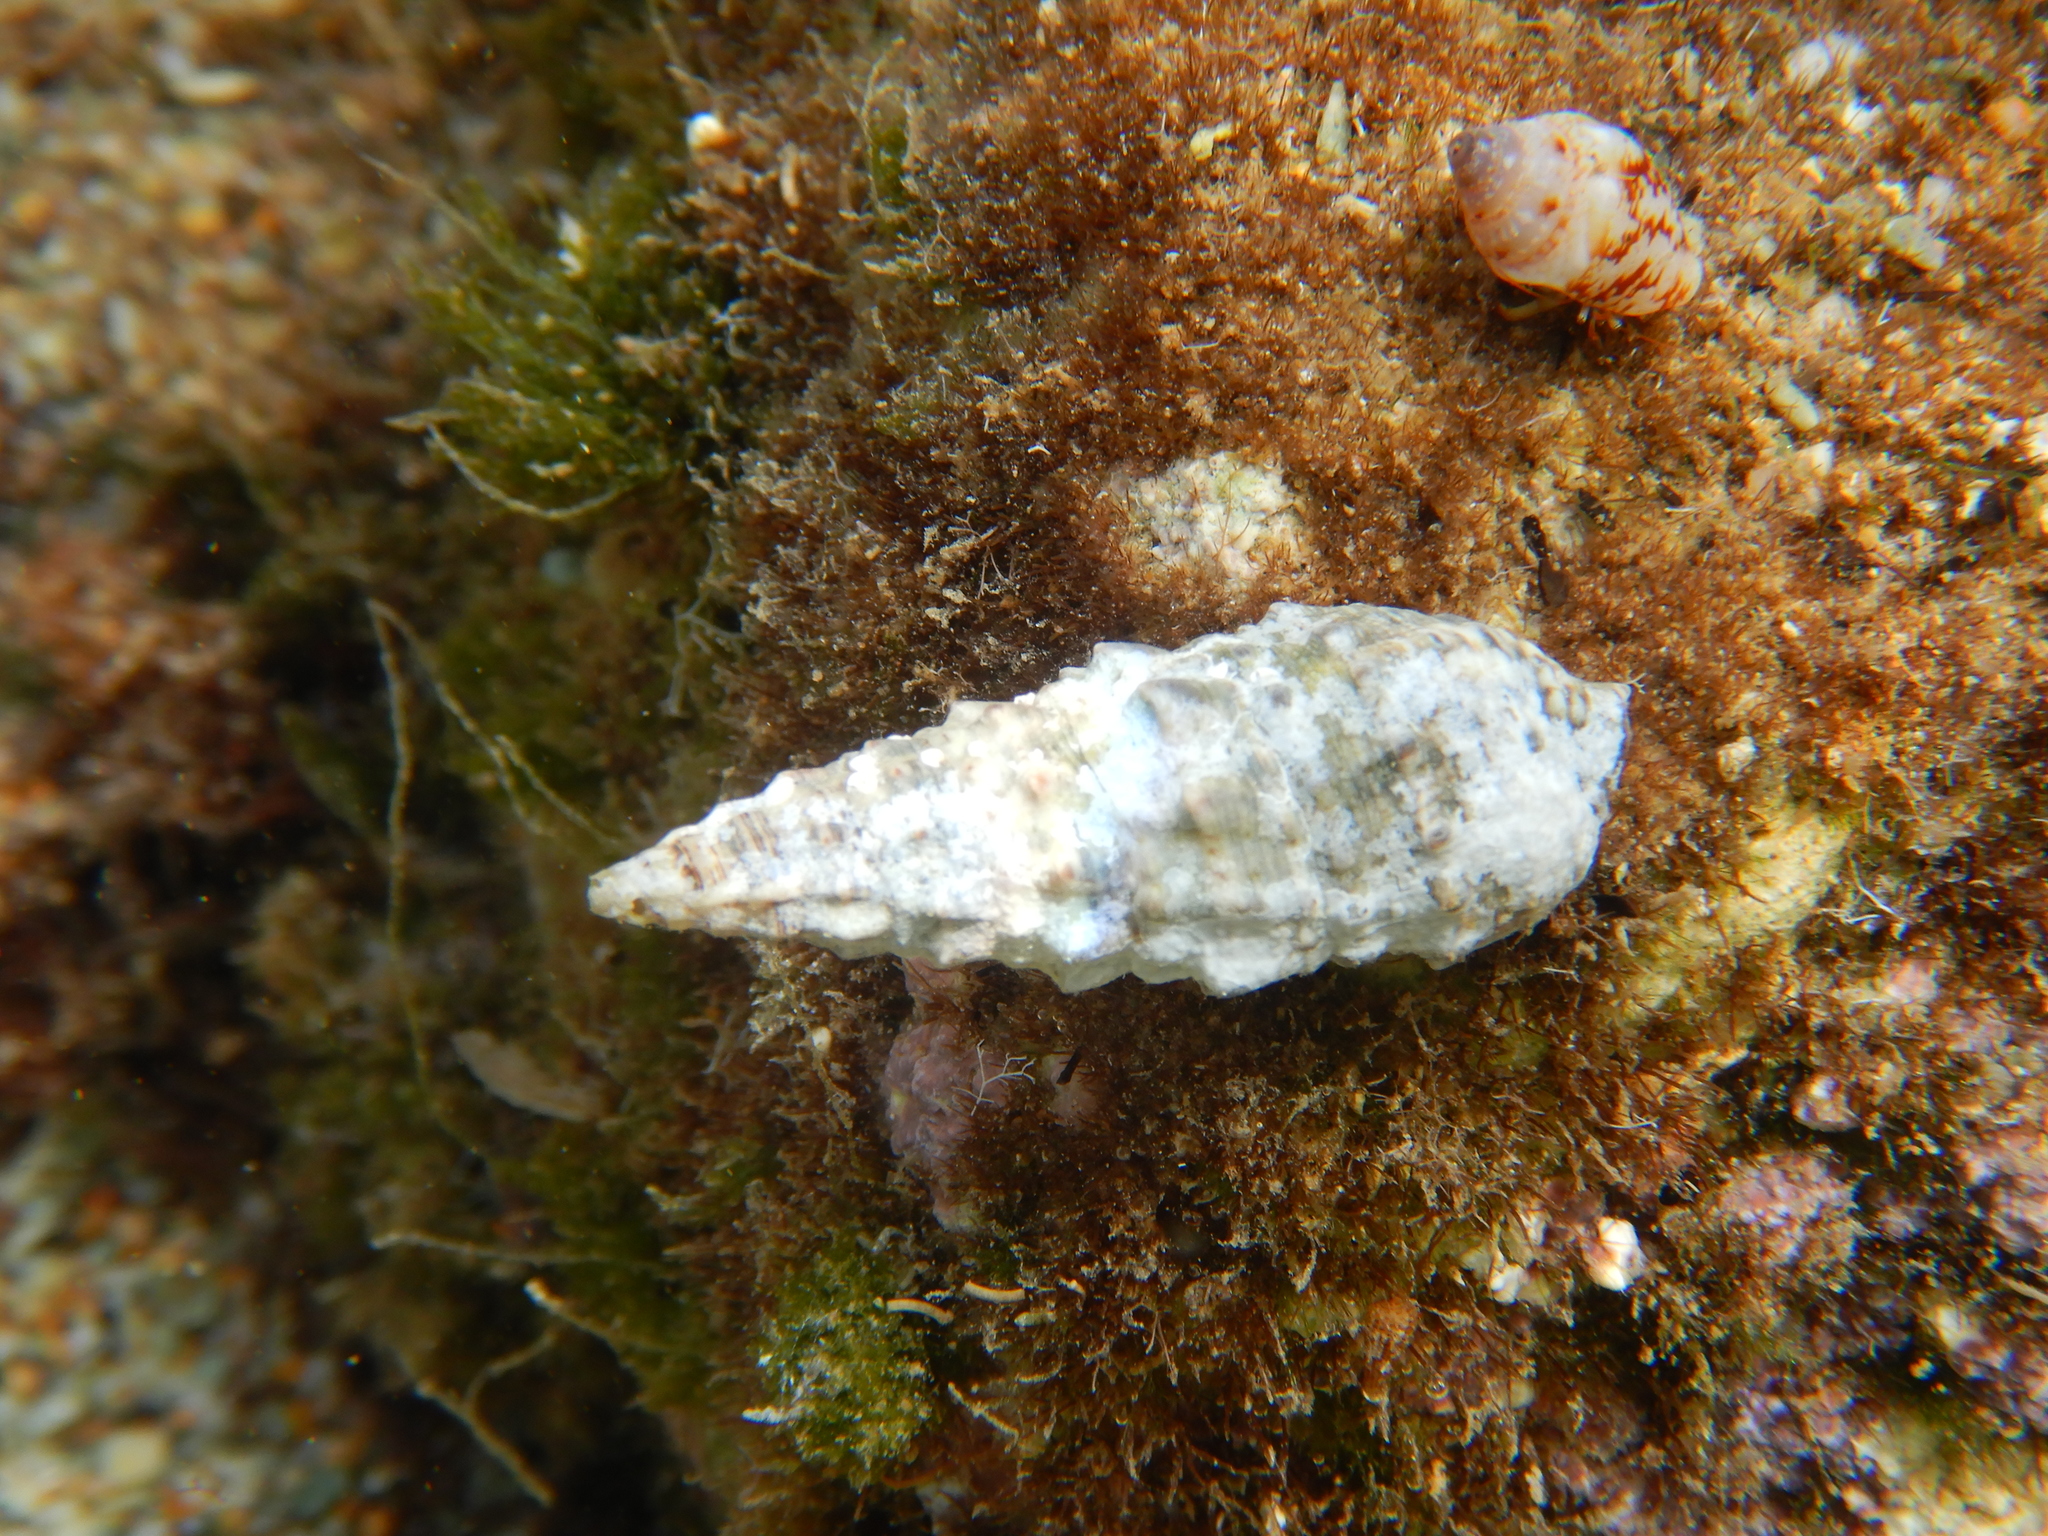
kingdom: Animalia
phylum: Mollusca
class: Gastropoda
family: Cerithiidae
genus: Cerithium
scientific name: Cerithium vulgatum
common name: European cerith
